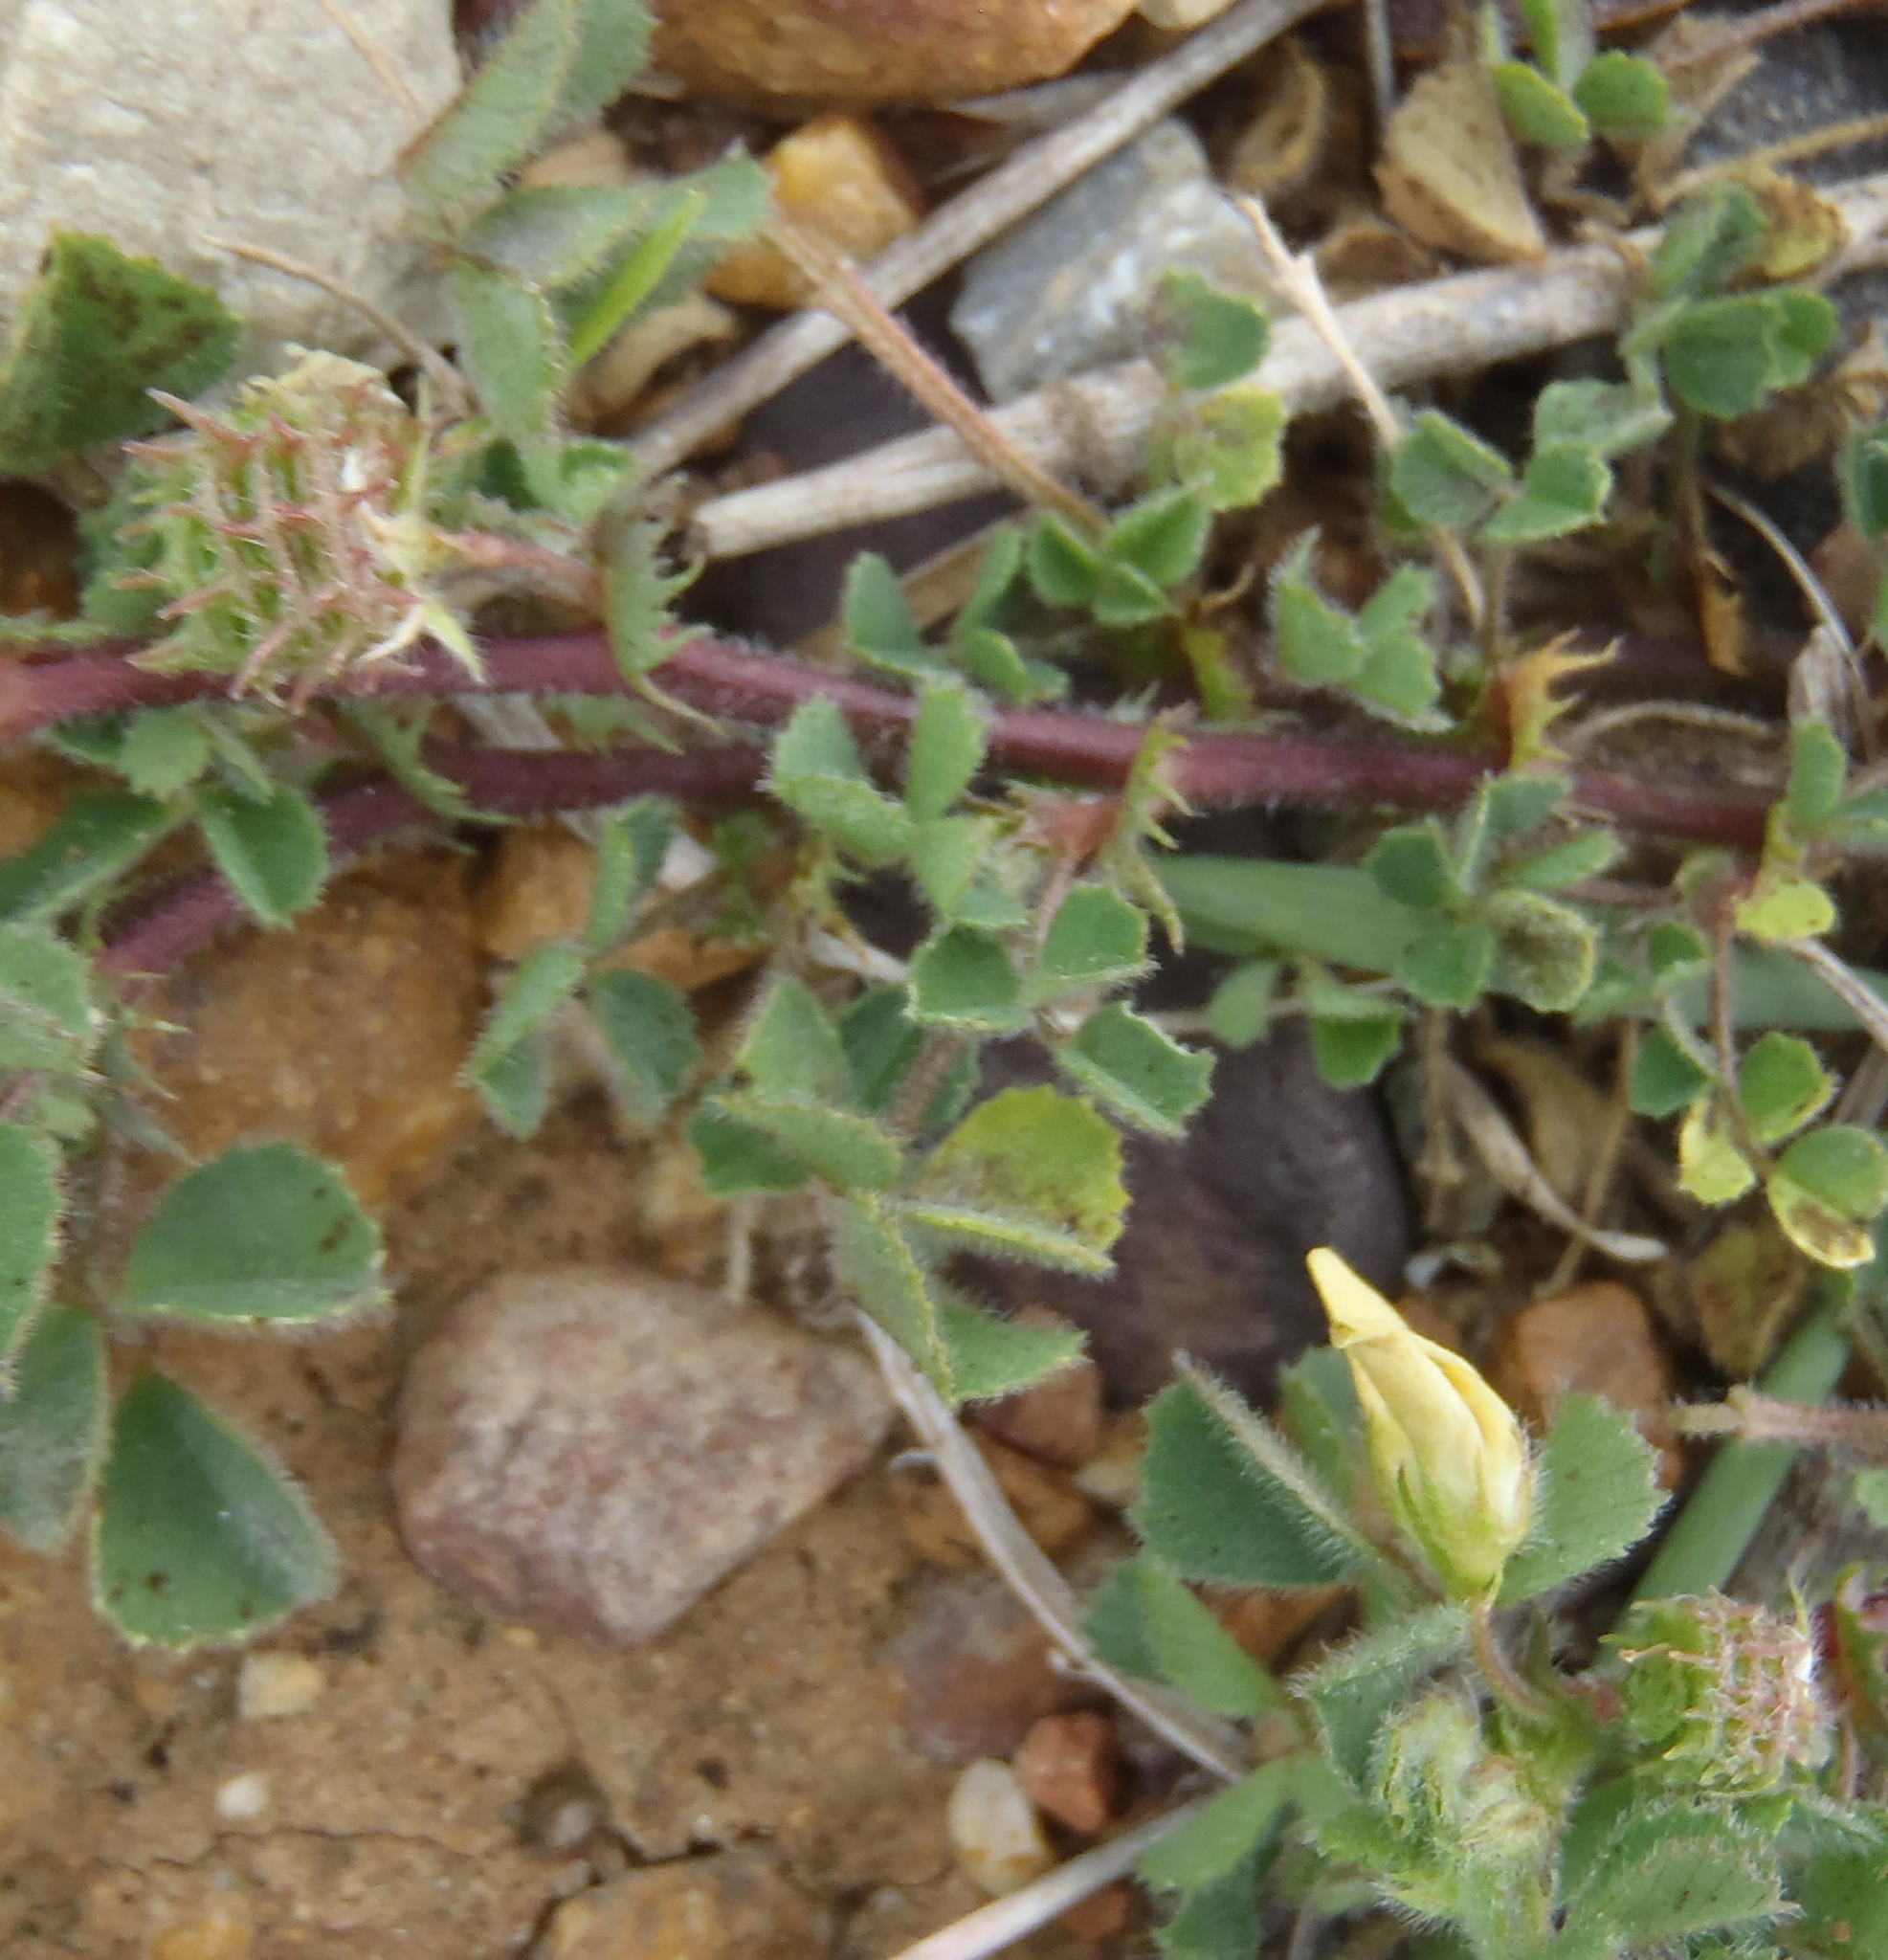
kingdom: Plantae
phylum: Tracheophyta
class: Magnoliopsida
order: Fabales
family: Fabaceae
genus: Medicago
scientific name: Medicago laciniata
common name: Tattered medick
